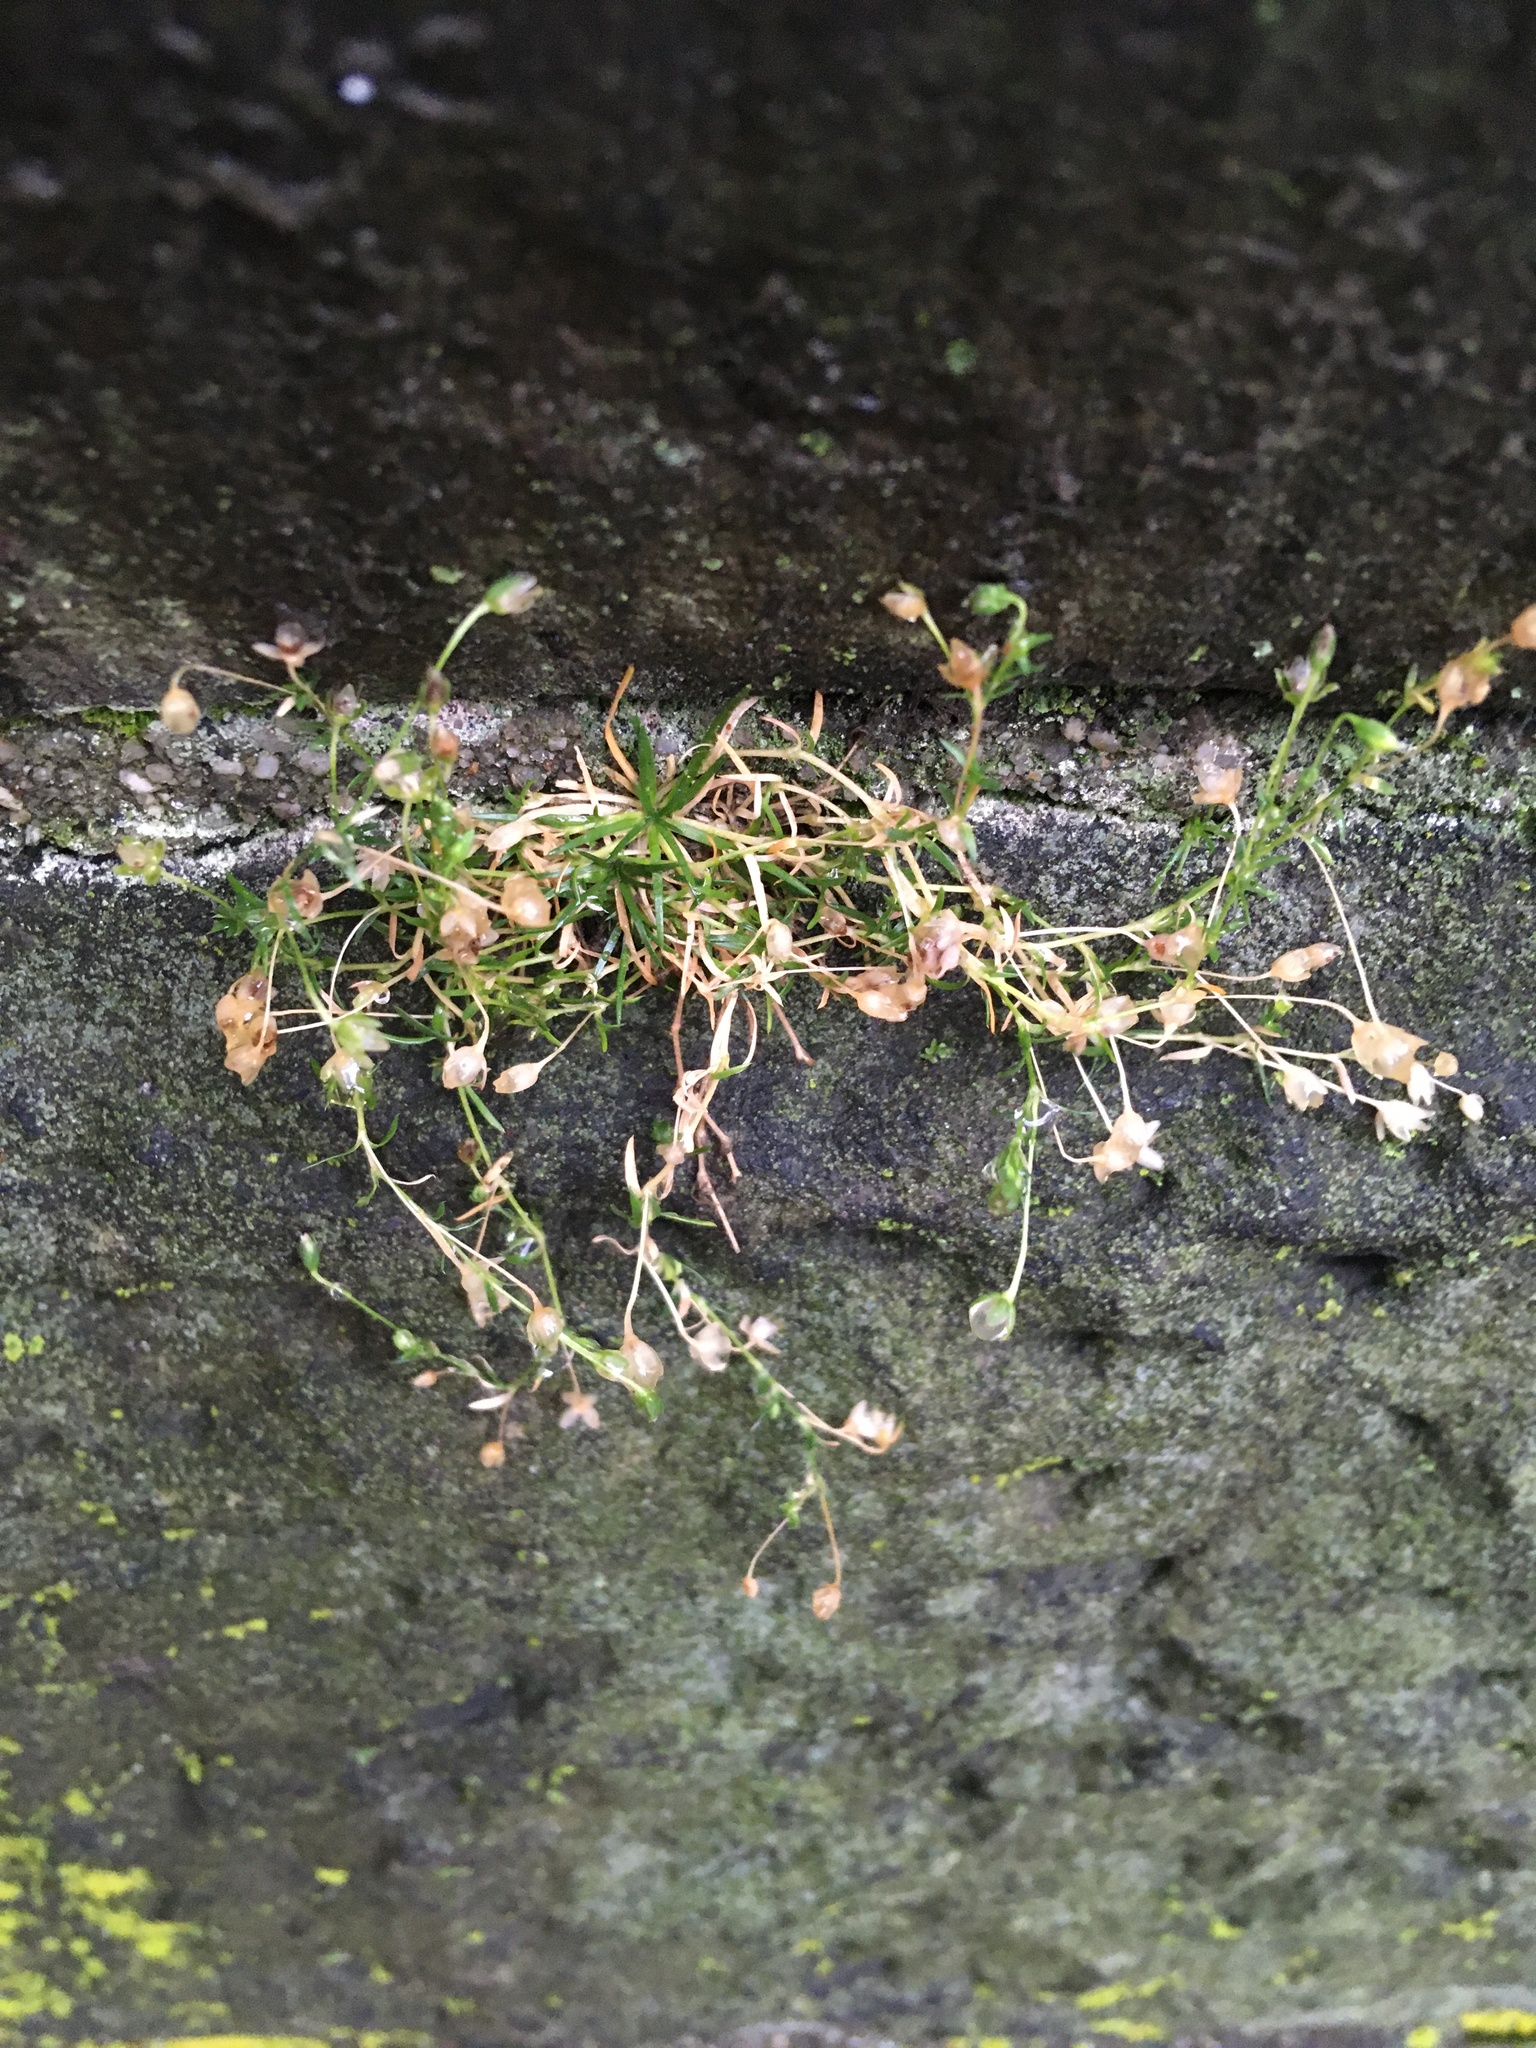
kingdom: Plantae
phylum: Tracheophyta
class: Magnoliopsida
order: Caryophyllales
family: Caryophyllaceae
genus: Sagina
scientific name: Sagina procumbens
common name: Procumbent pearlwort
